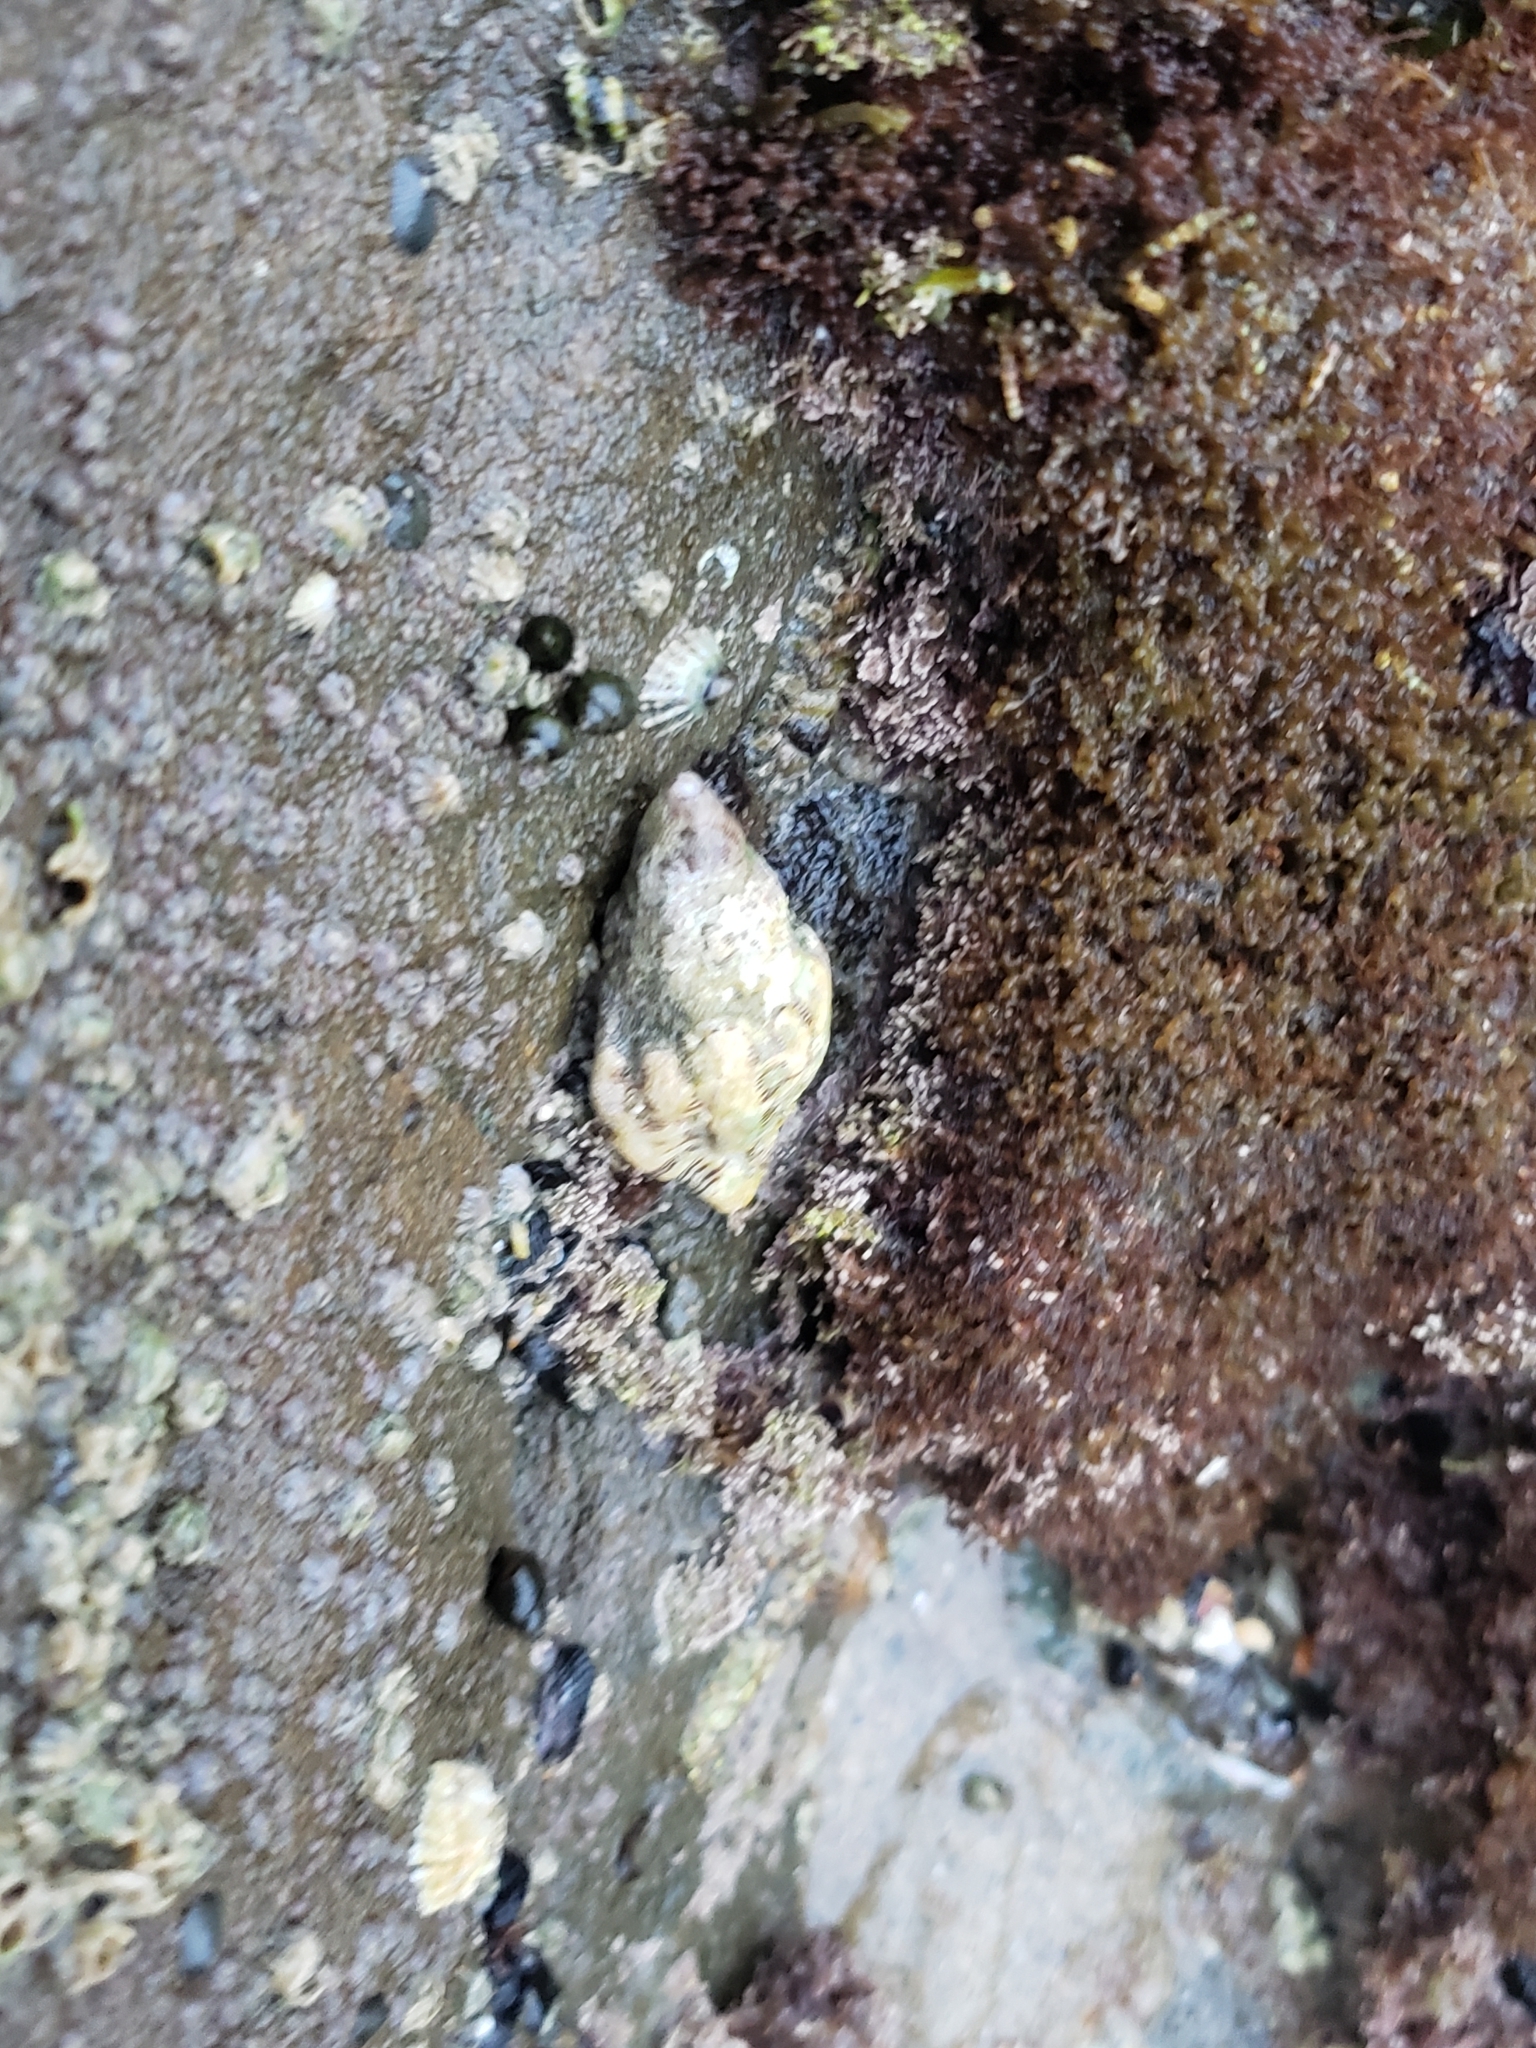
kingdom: Animalia
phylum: Mollusca
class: Gastropoda
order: Neogastropoda
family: Muricidae
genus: Roperia
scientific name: Roperia poulsoni
